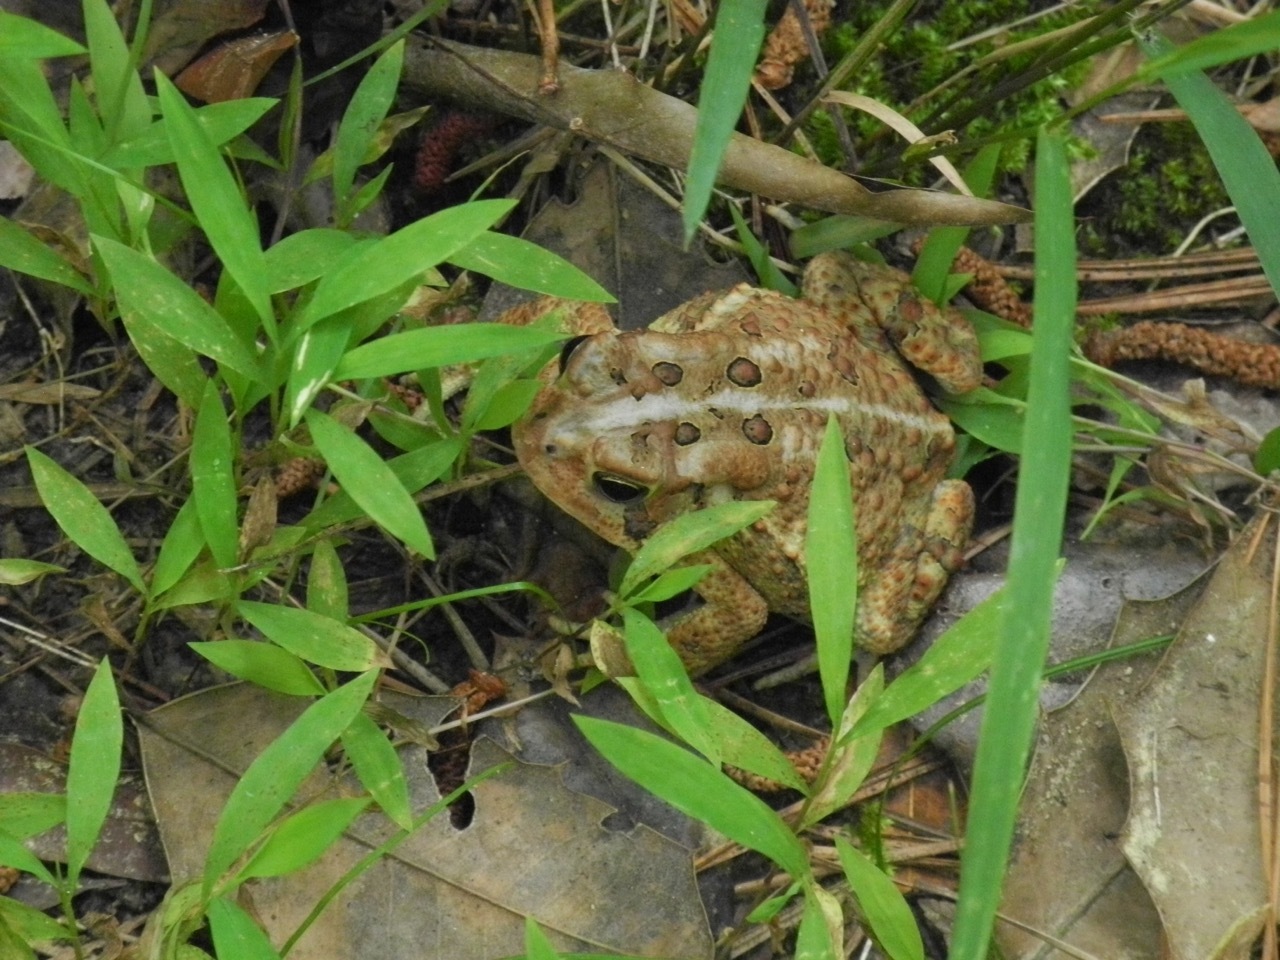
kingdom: Animalia
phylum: Chordata
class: Amphibia
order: Anura
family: Bufonidae
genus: Anaxyrus
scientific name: Anaxyrus americanus
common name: American toad
